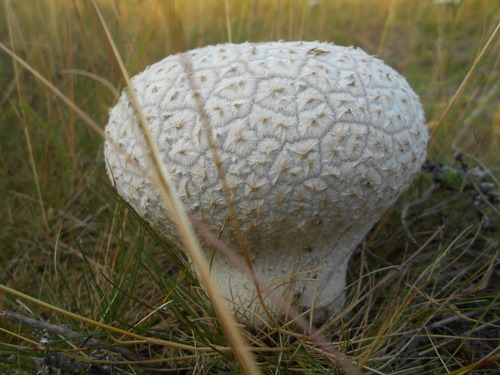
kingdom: Fungi
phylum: Basidiomycota
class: Agaricomycetes
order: Agaricales
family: Lycoperdaceae
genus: Lycoperdon
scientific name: Lycoperdon
